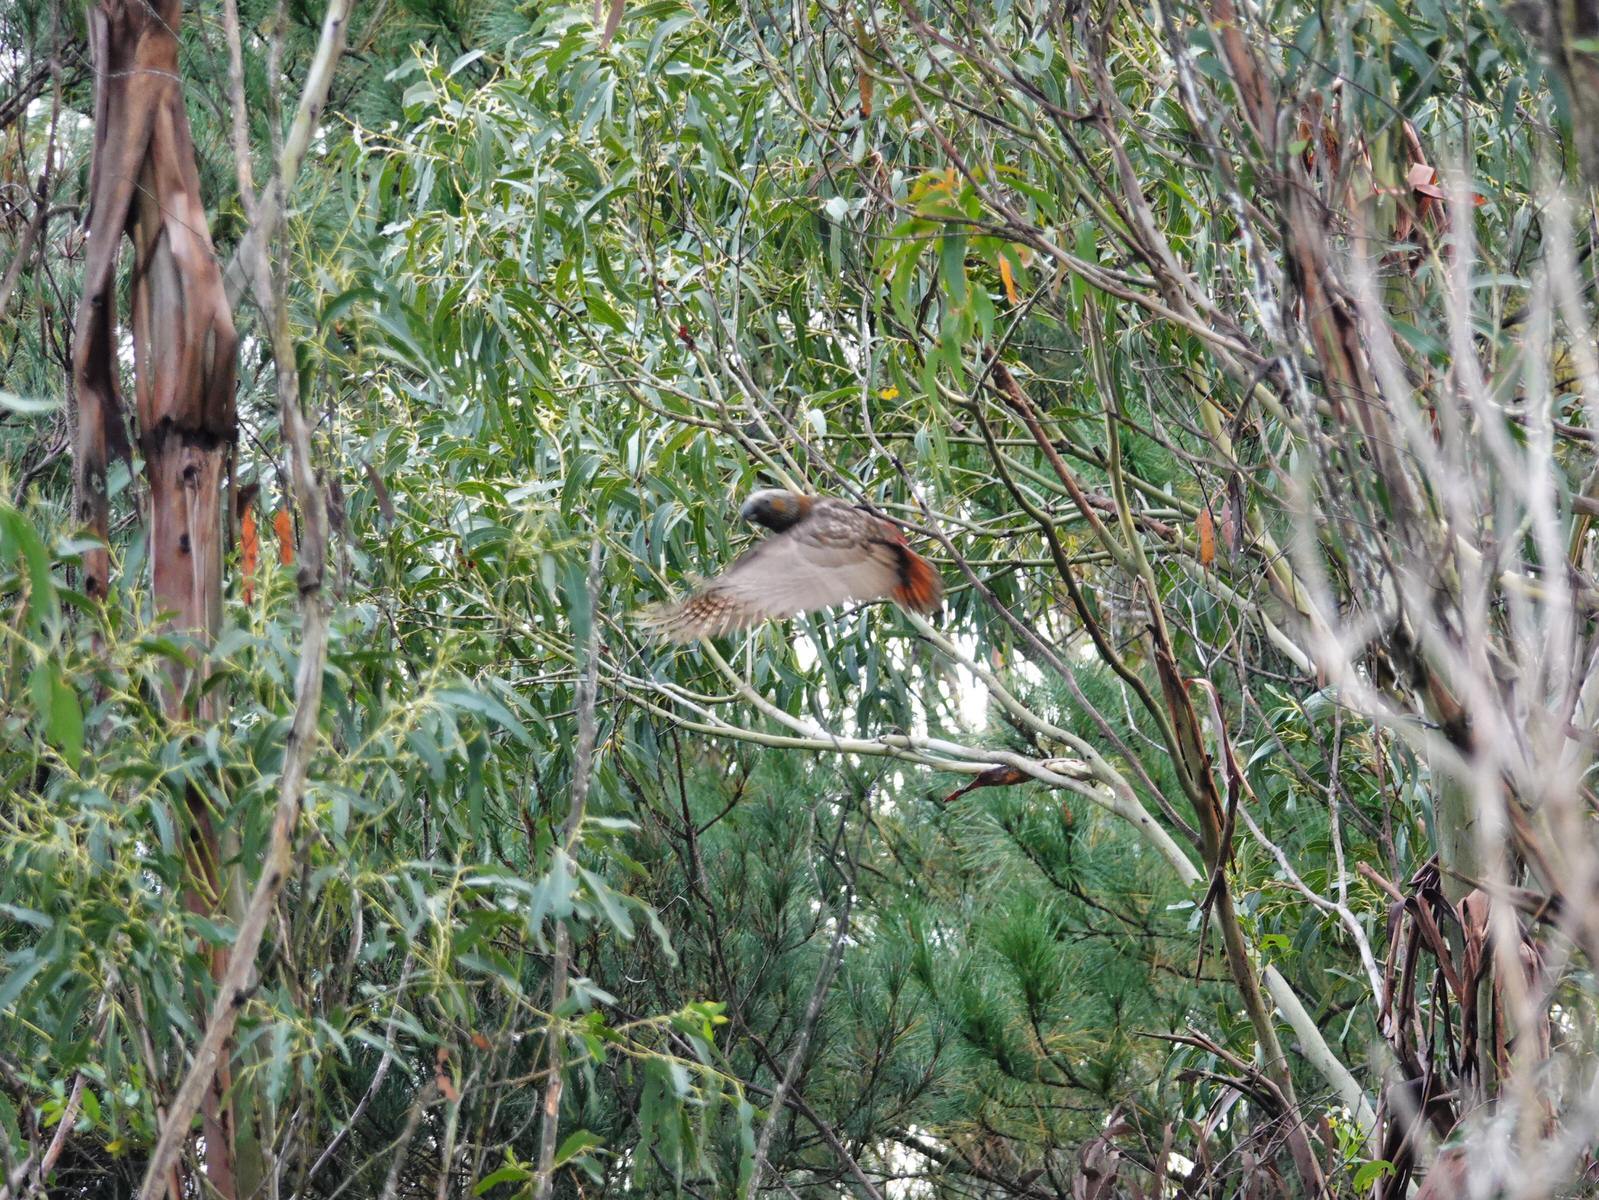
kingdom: Animalia
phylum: Chordata
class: Aves
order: Psittaciformes
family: Psittacidae
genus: Nestor
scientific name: Nestor meridionalis
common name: New zealand kaka
